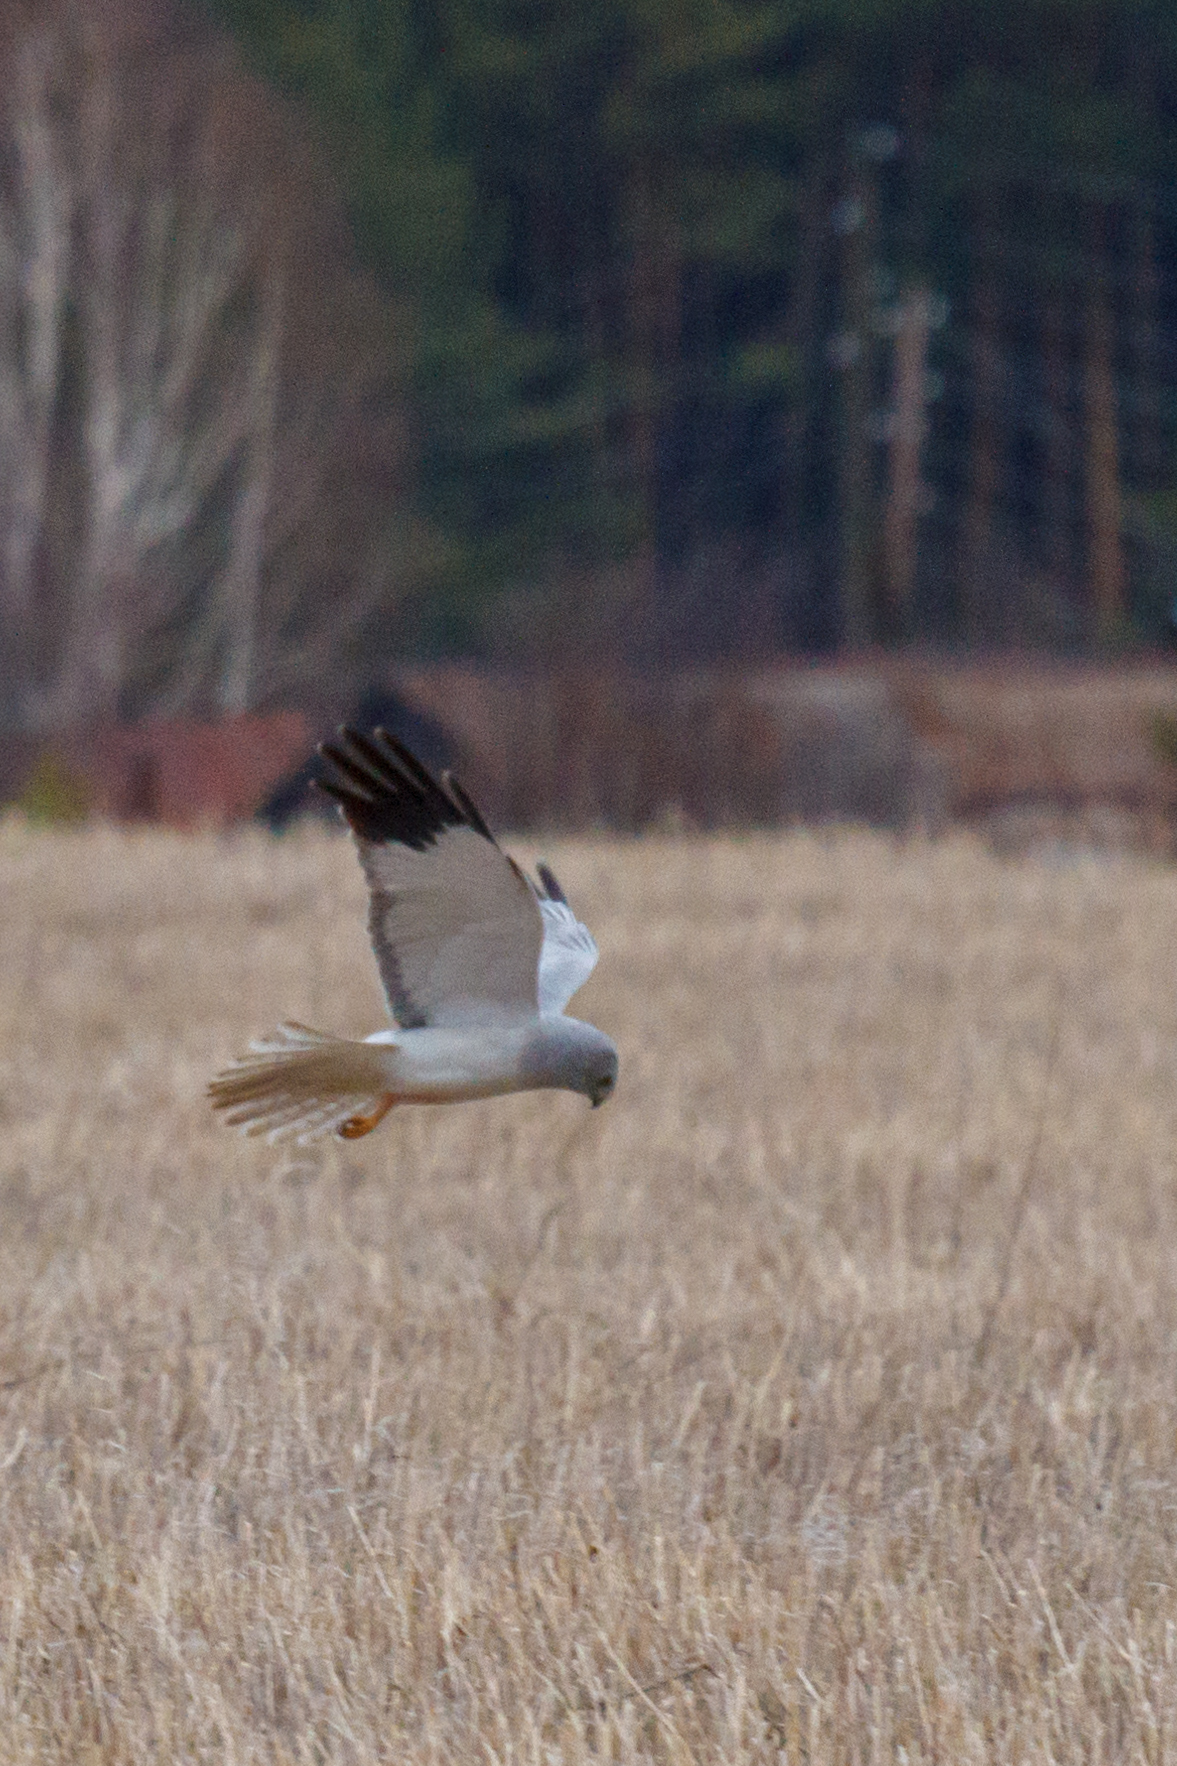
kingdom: Animalia
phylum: Chordata
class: Aves
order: Accipitriformes
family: Accipitridae
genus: Circus
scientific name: Circus cyaneus
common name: Hen harrier
